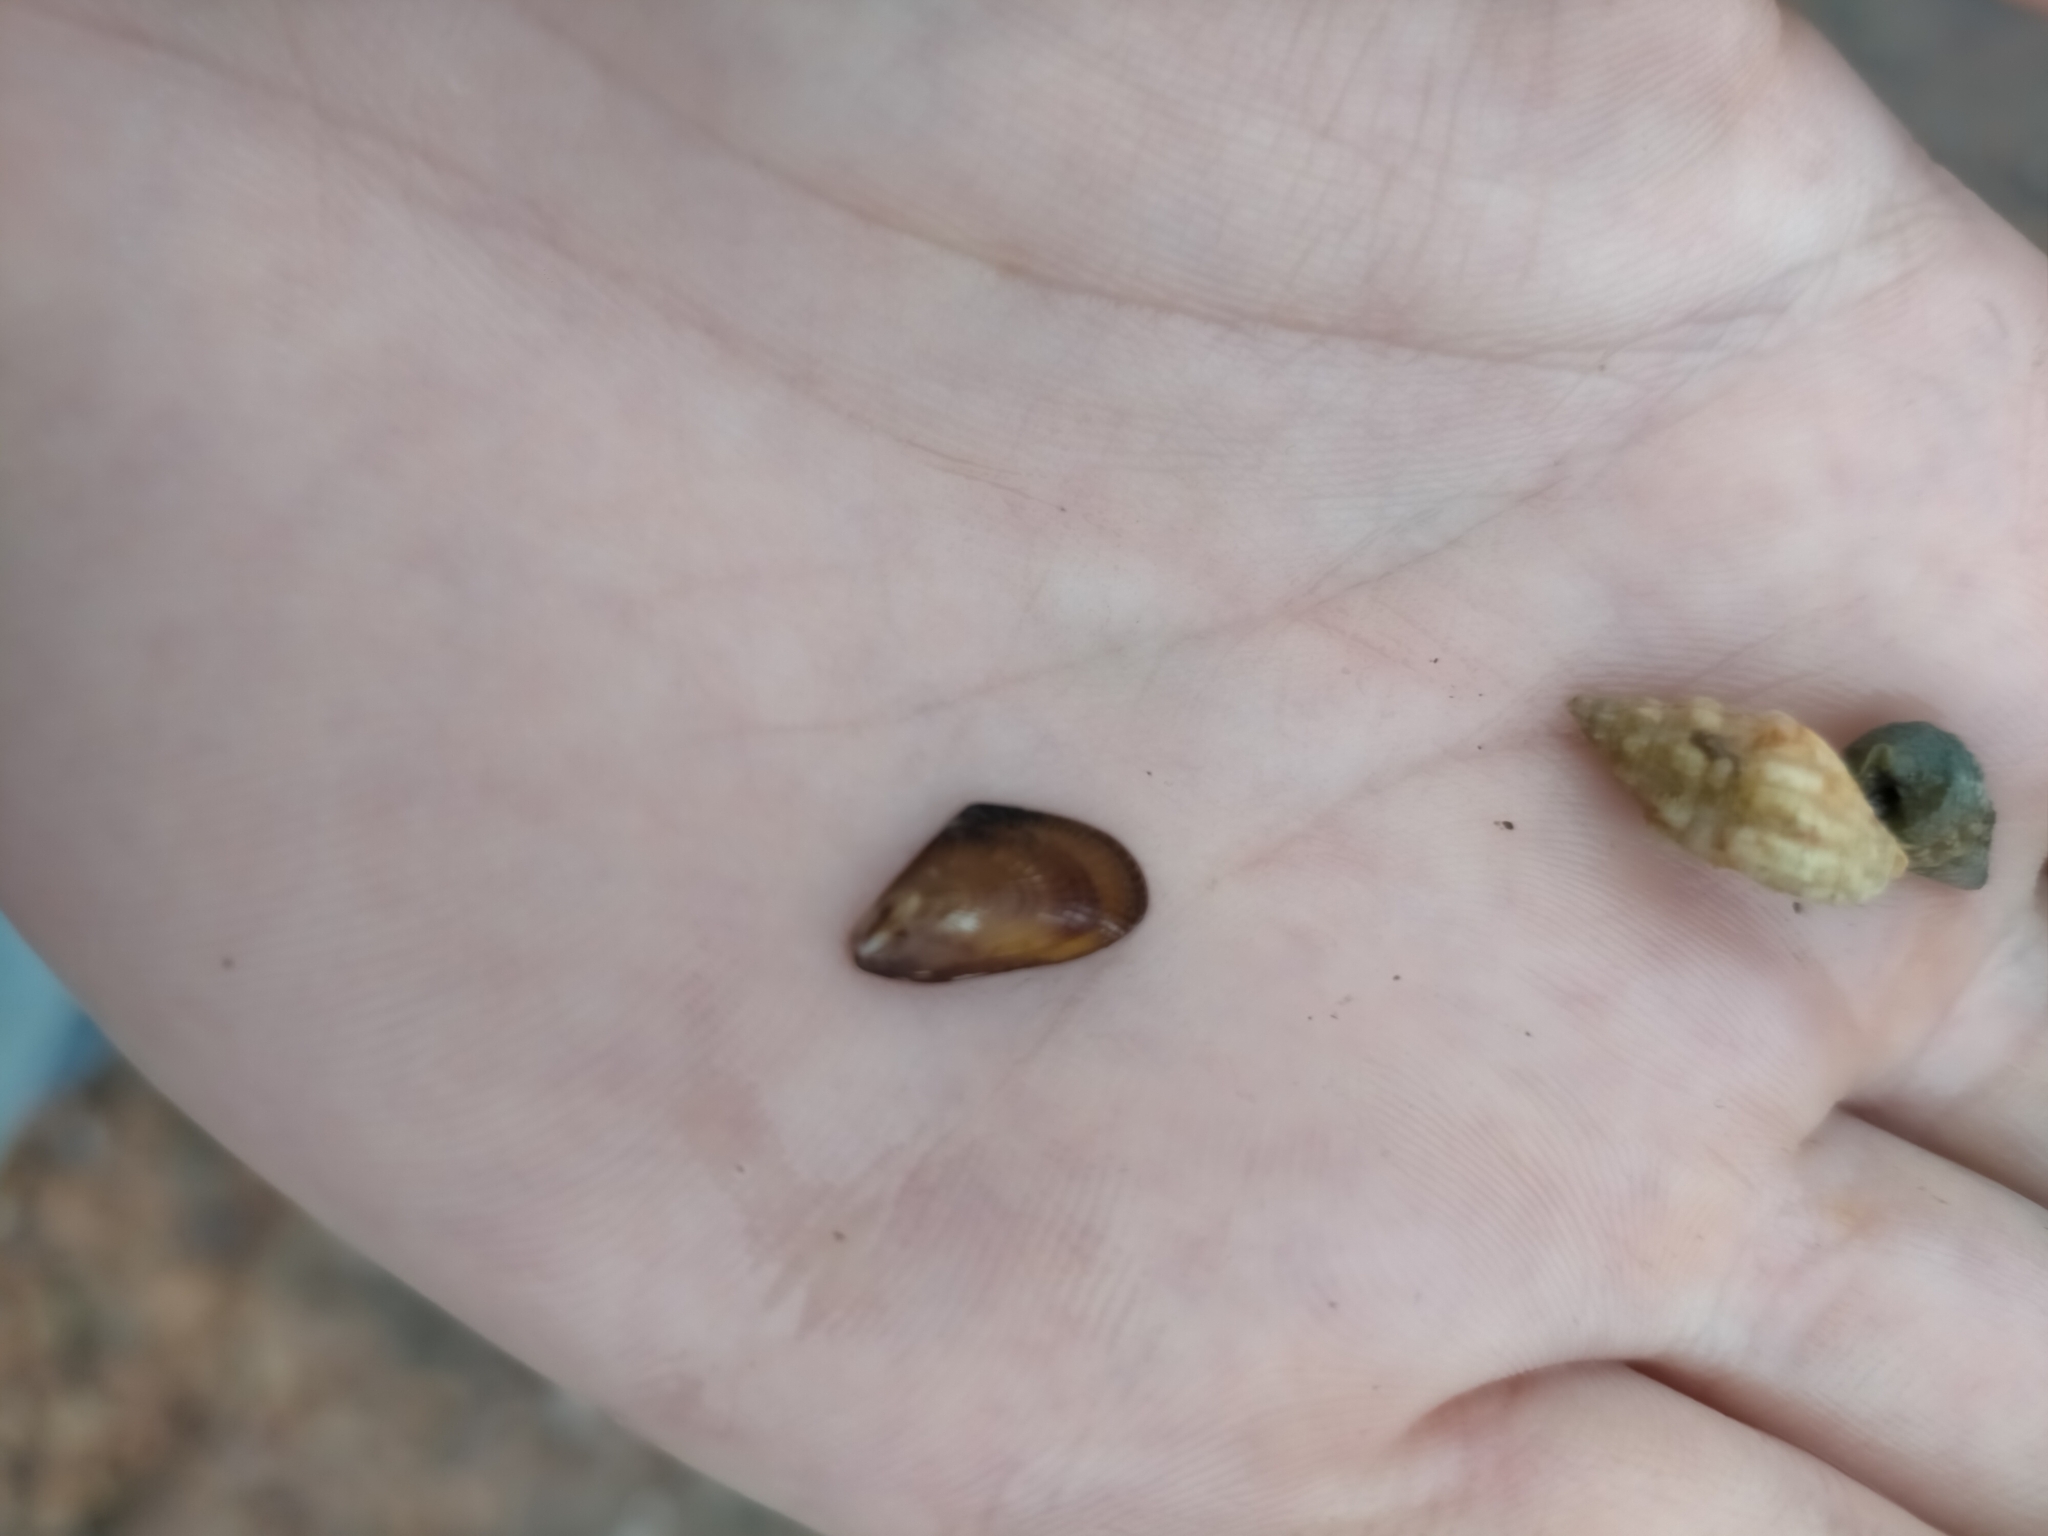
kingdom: Animalia
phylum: Mollusca
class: Bivalvia
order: Mytilida
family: Mytilidae
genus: Xenostrobus
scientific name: Xenostrobus inconstans
